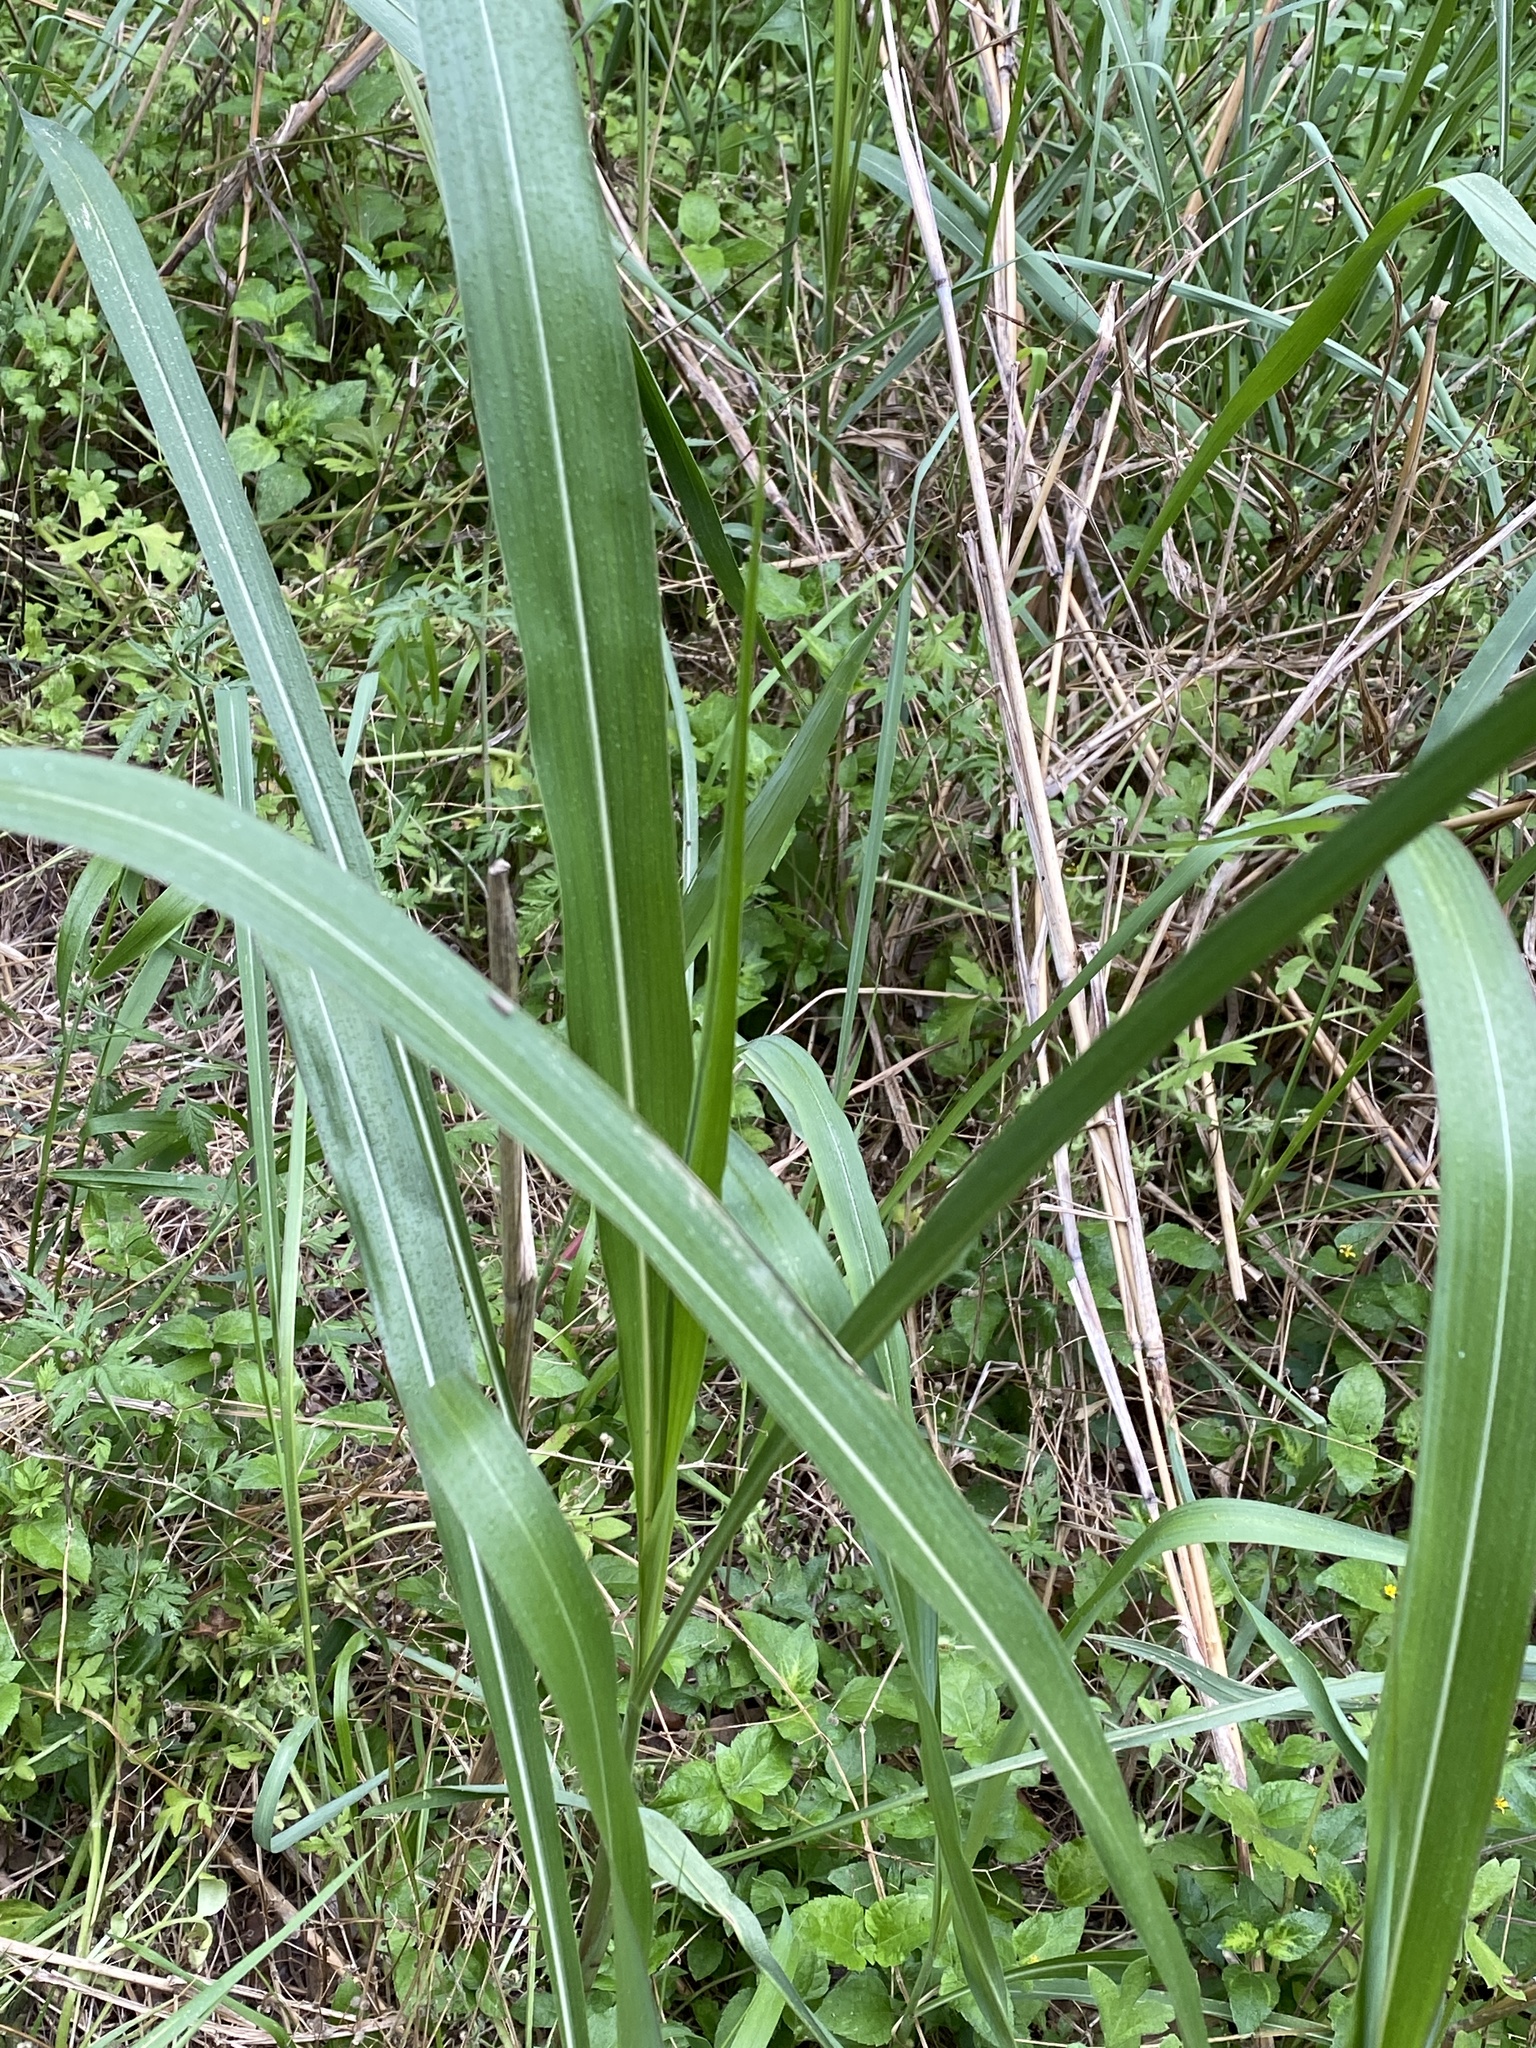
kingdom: Plantae
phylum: Tracheophyta
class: Liliopsida
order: Poales
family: Poaceae
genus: Sorghum
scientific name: Sorghum halepense
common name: Johnson-grass
